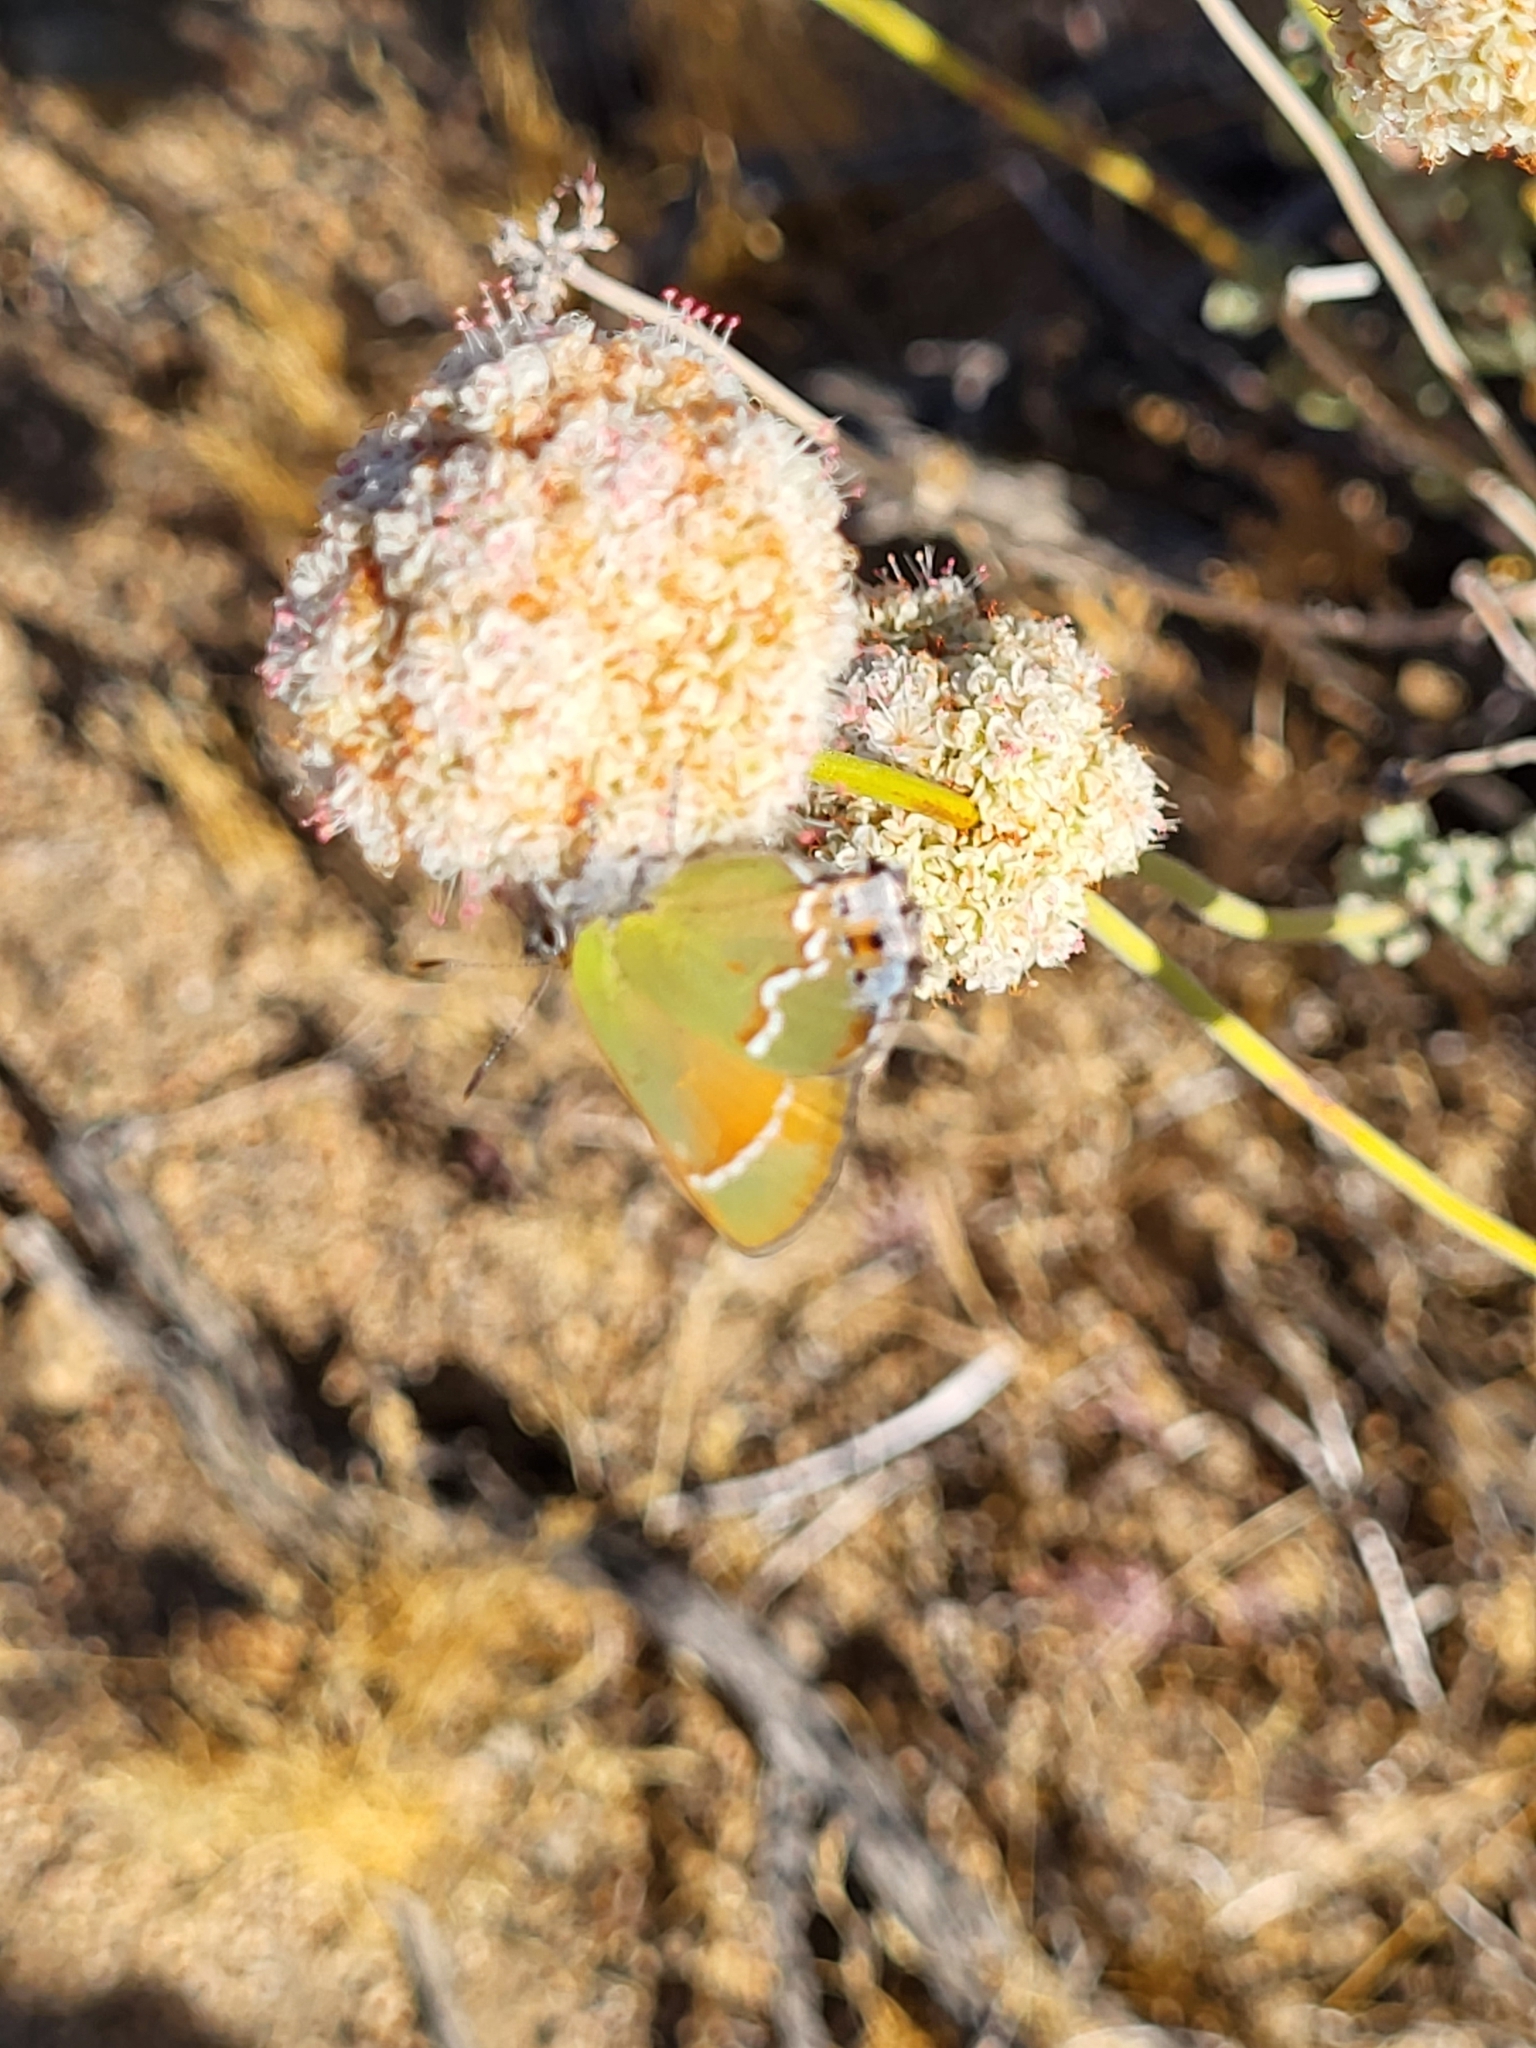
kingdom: Animalia
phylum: Arthropoda
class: Insecta
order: Lepidoptera
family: Lycaenidae
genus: Mitoura
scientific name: Mitoura gryneus
